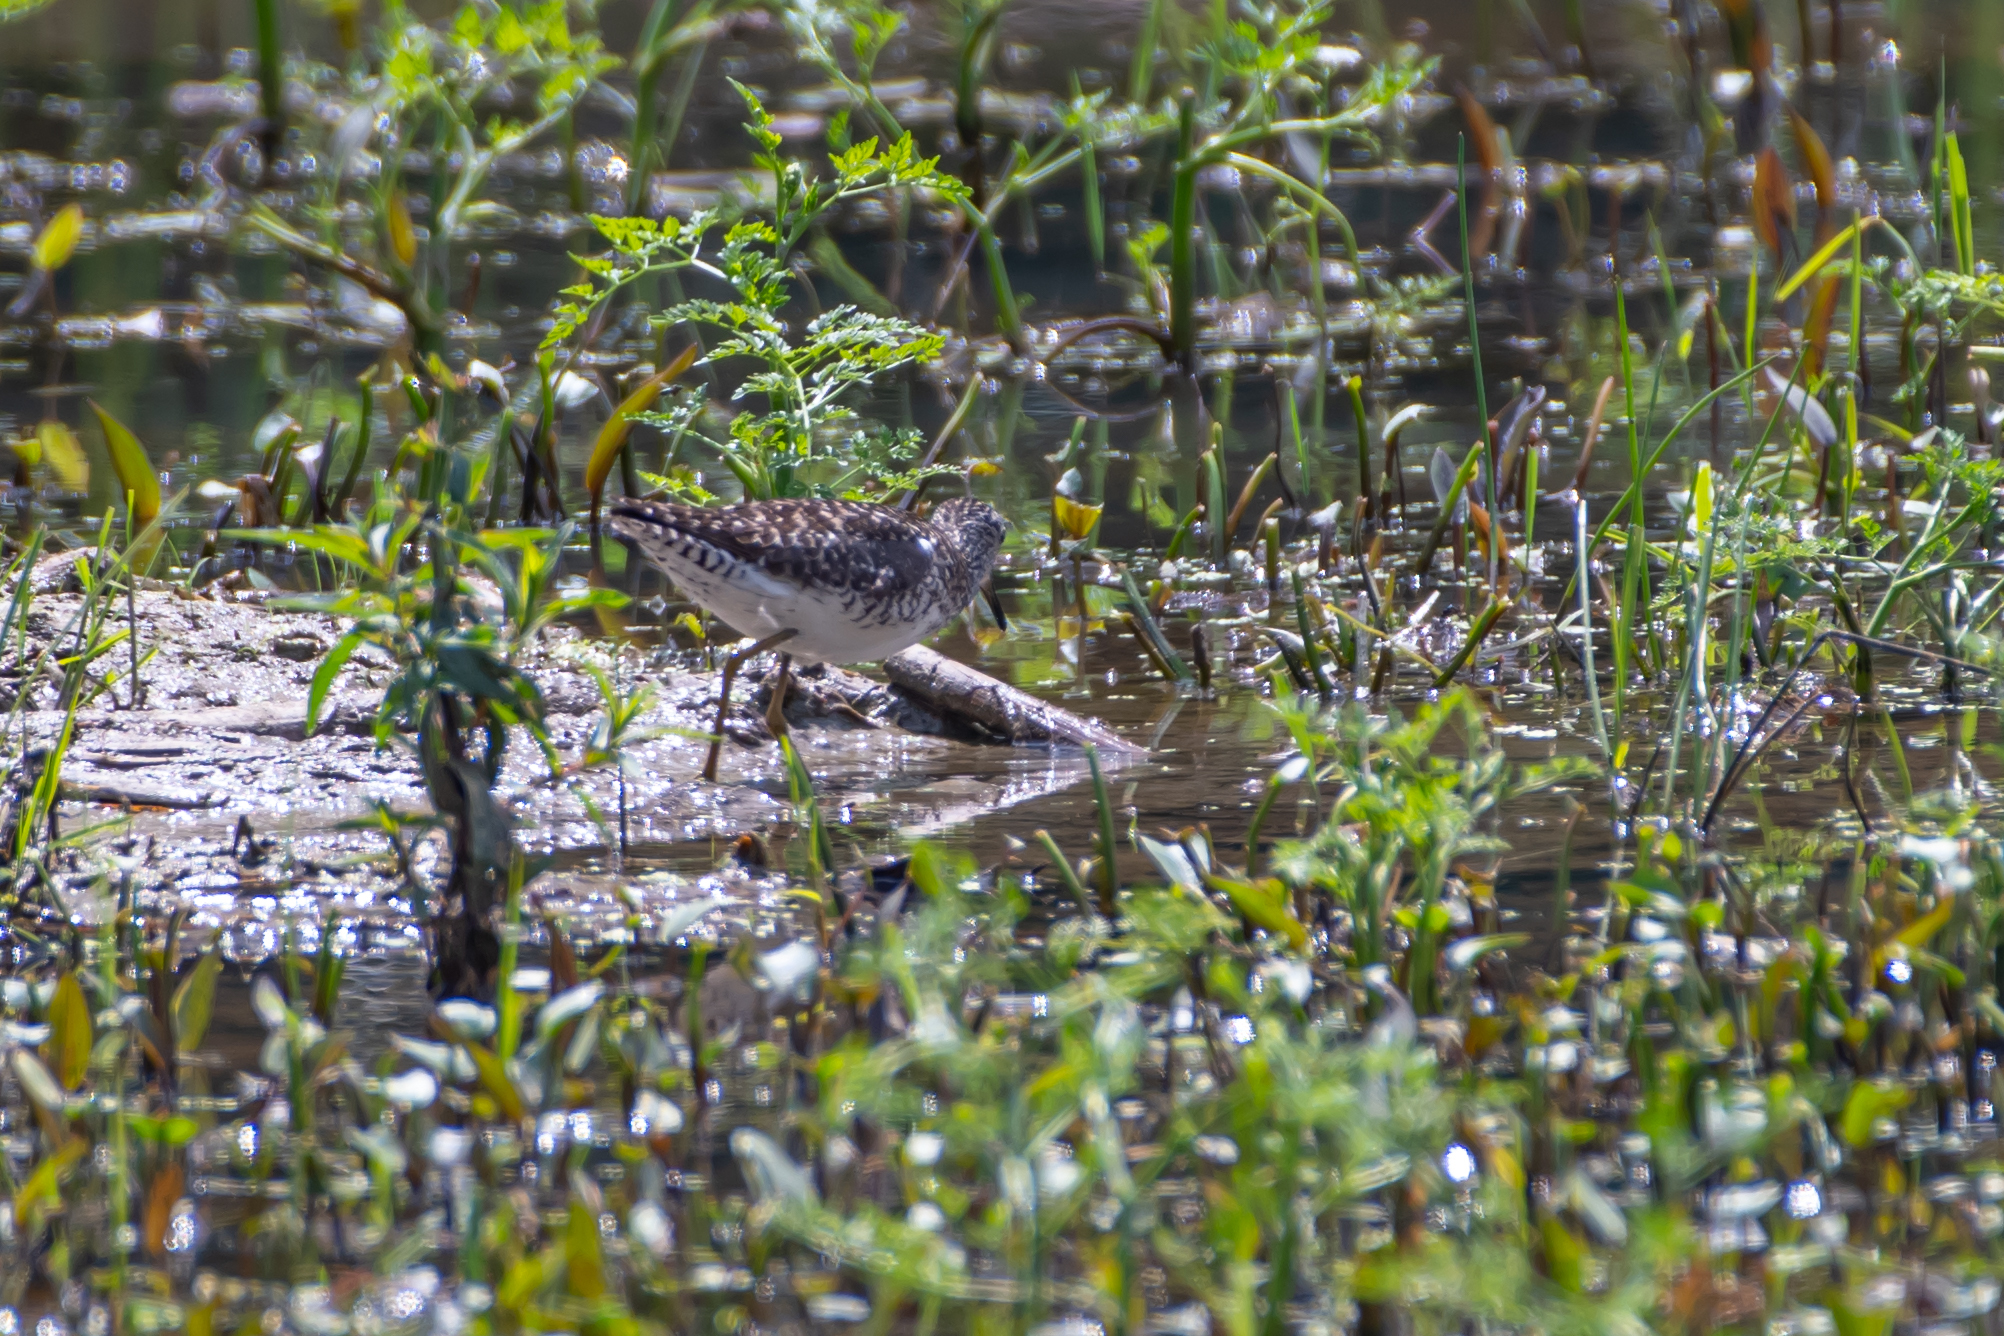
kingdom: Animalia
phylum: Chordata
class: Aves
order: Charadriiformes
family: Scolopacidae
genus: Tringa
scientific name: Tringa glareola
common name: Wood sandpiper
